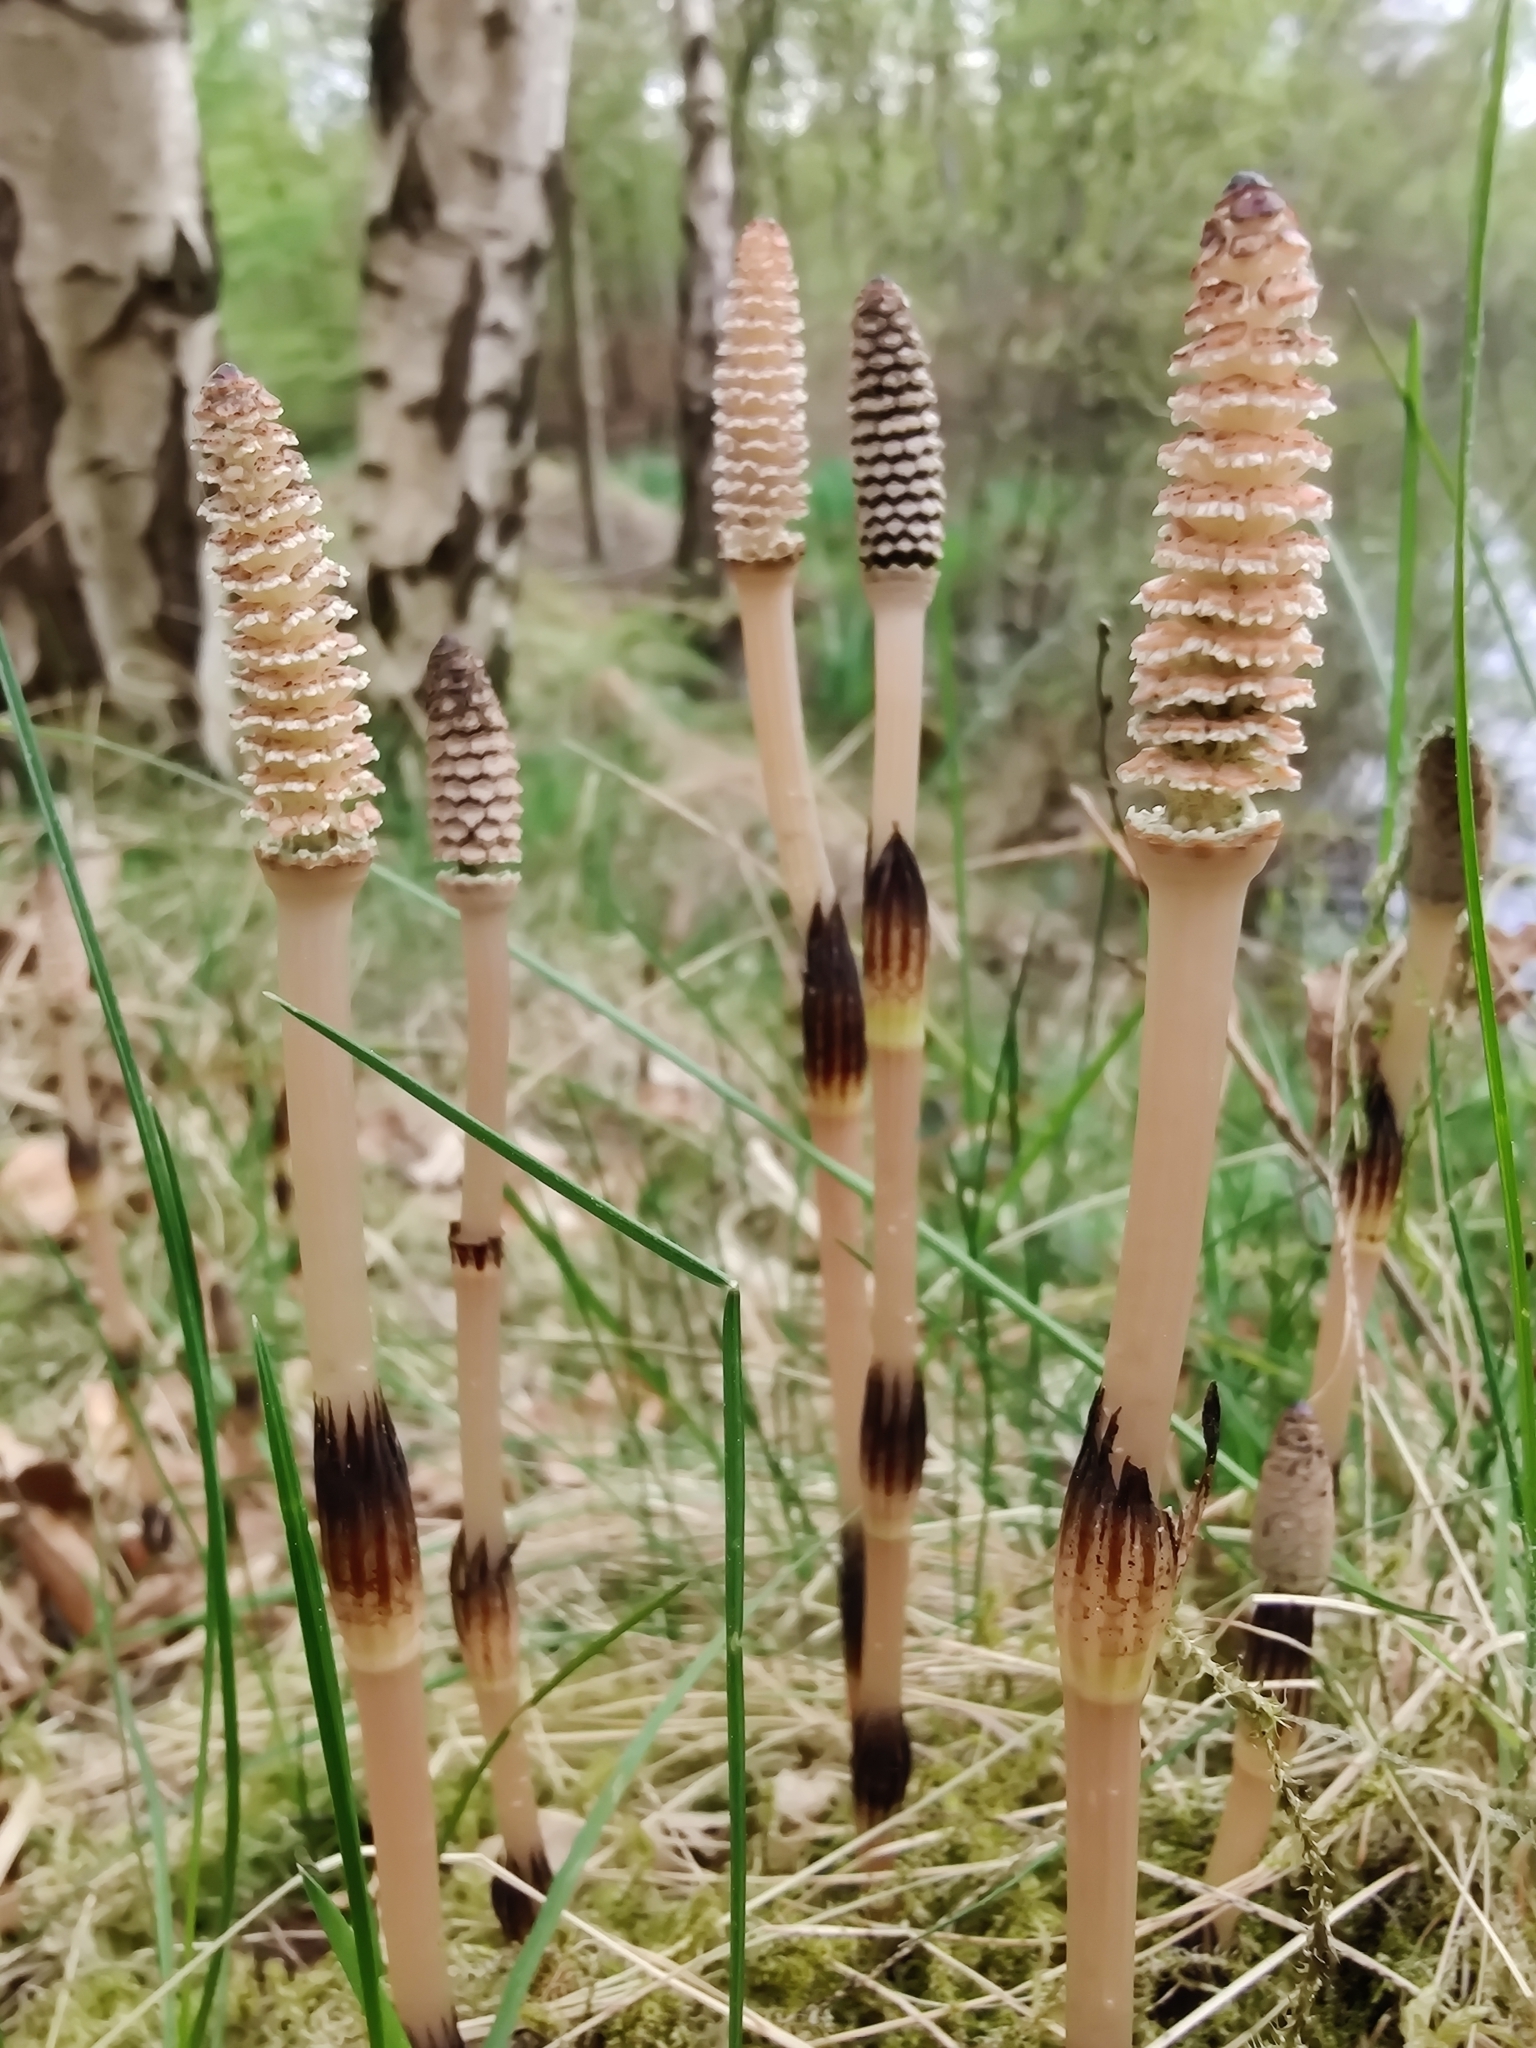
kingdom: Plantae
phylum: Tracheophyta
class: Polypodiopsida
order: Equisetales
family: Equisetaceae
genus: Equisetum
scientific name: Equisetum arvense
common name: Field horsetail
